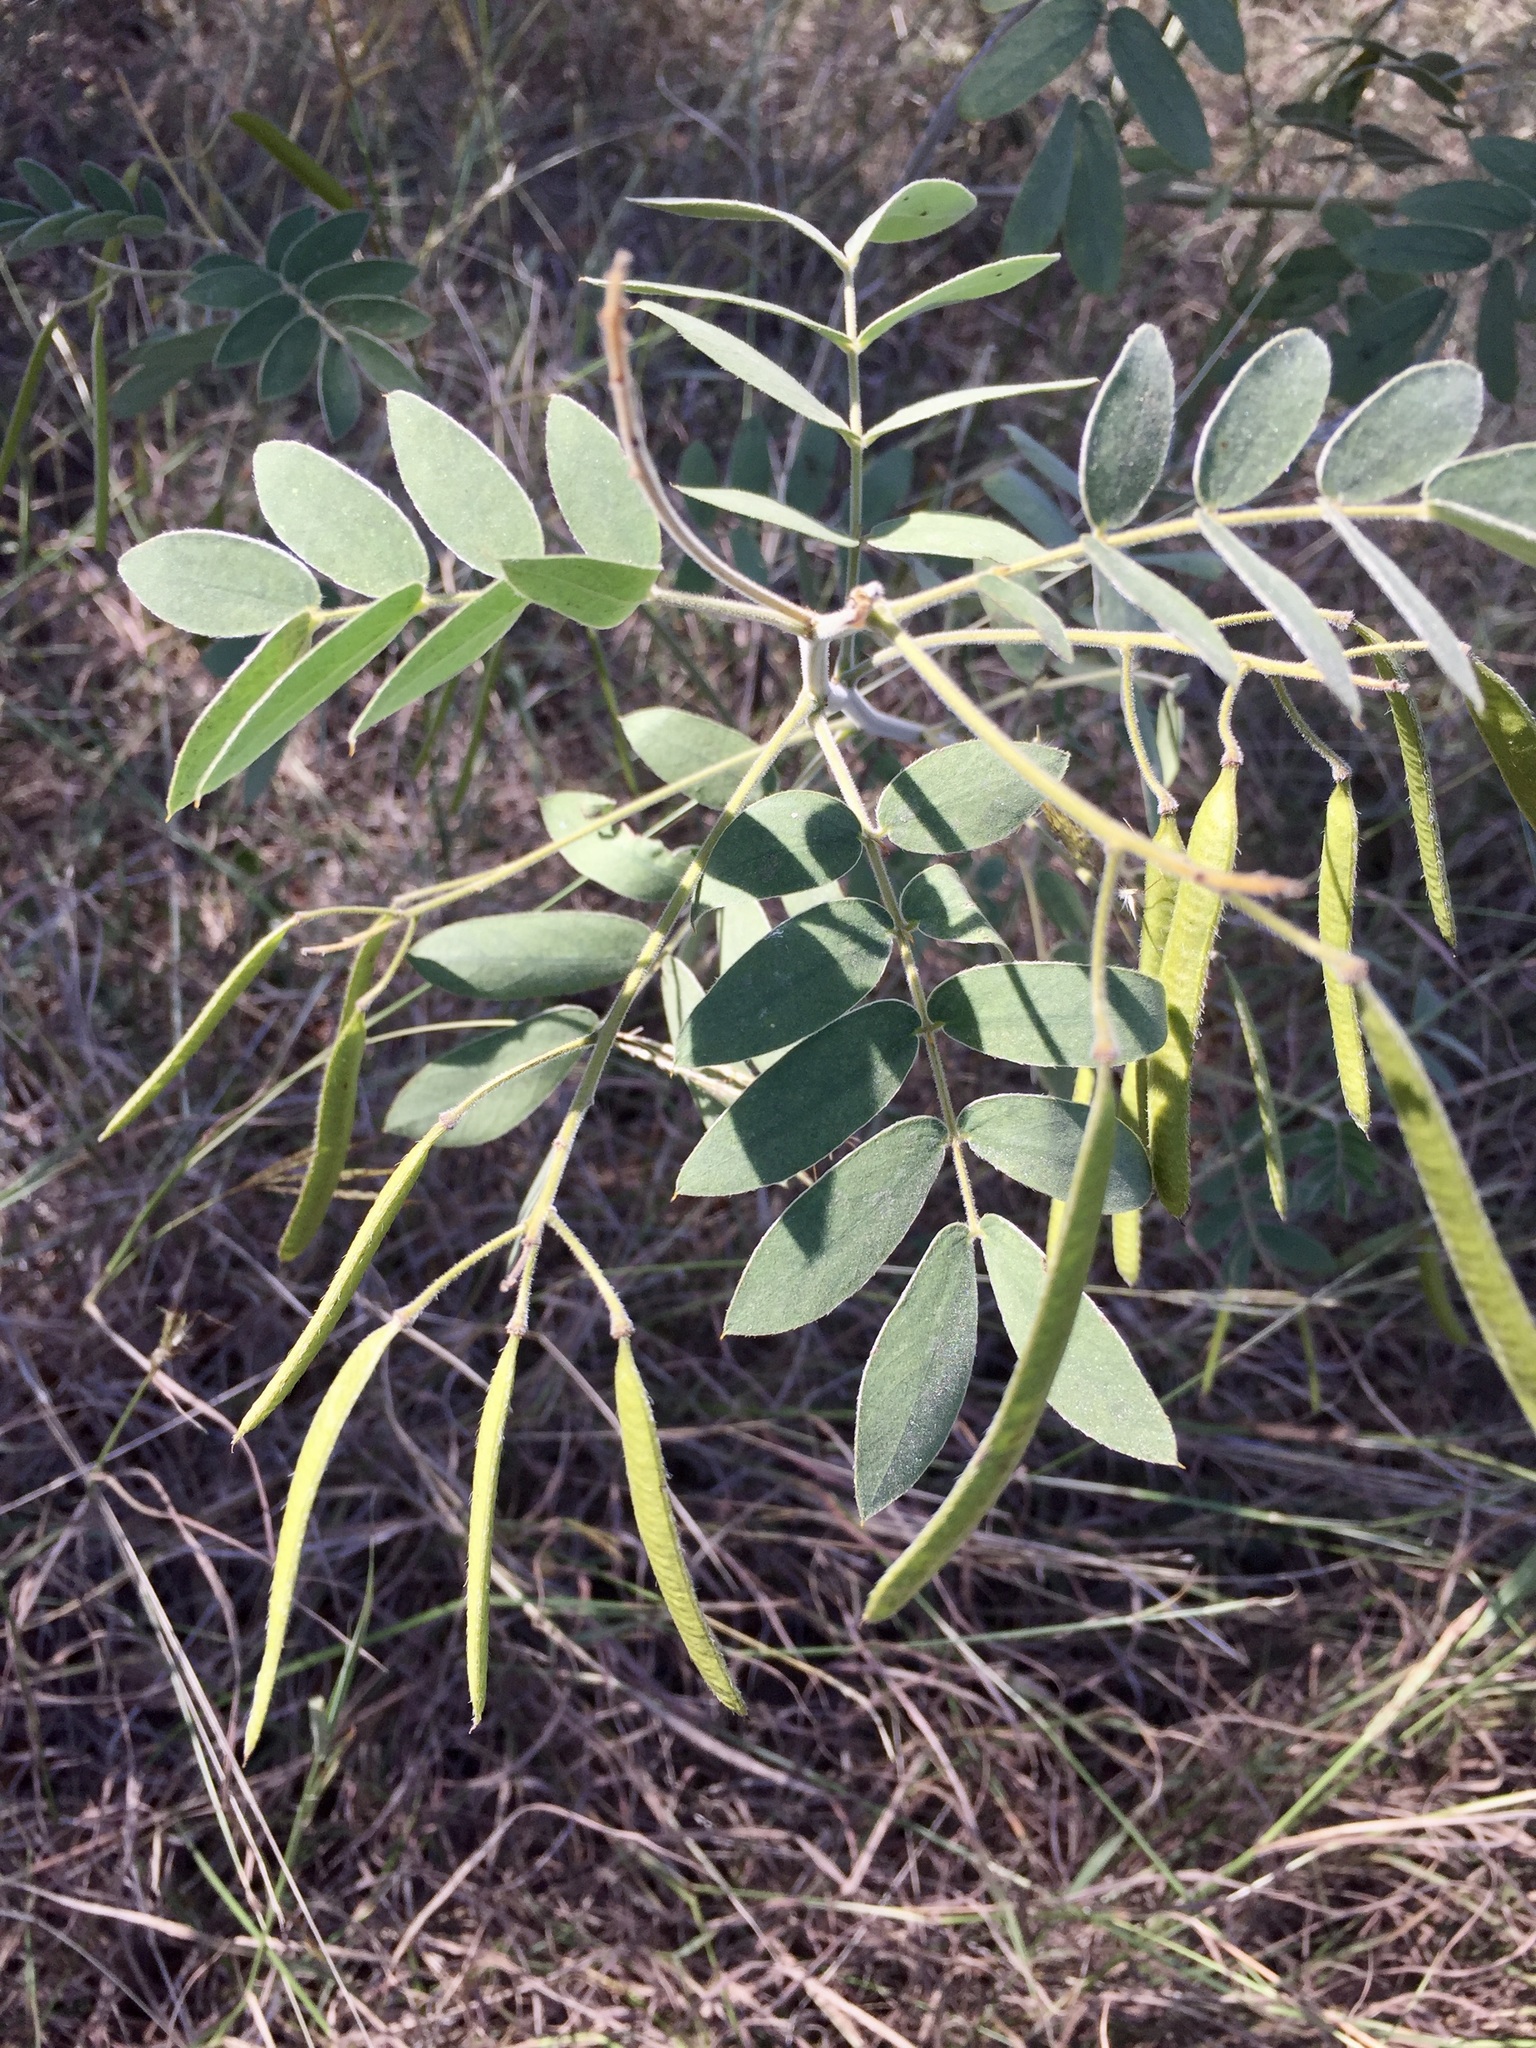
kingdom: Plantae
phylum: Tracheophyta
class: Magnoliopsida
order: Fabales
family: Fabaceae
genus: Senna
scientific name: Senna lindheimeriana
